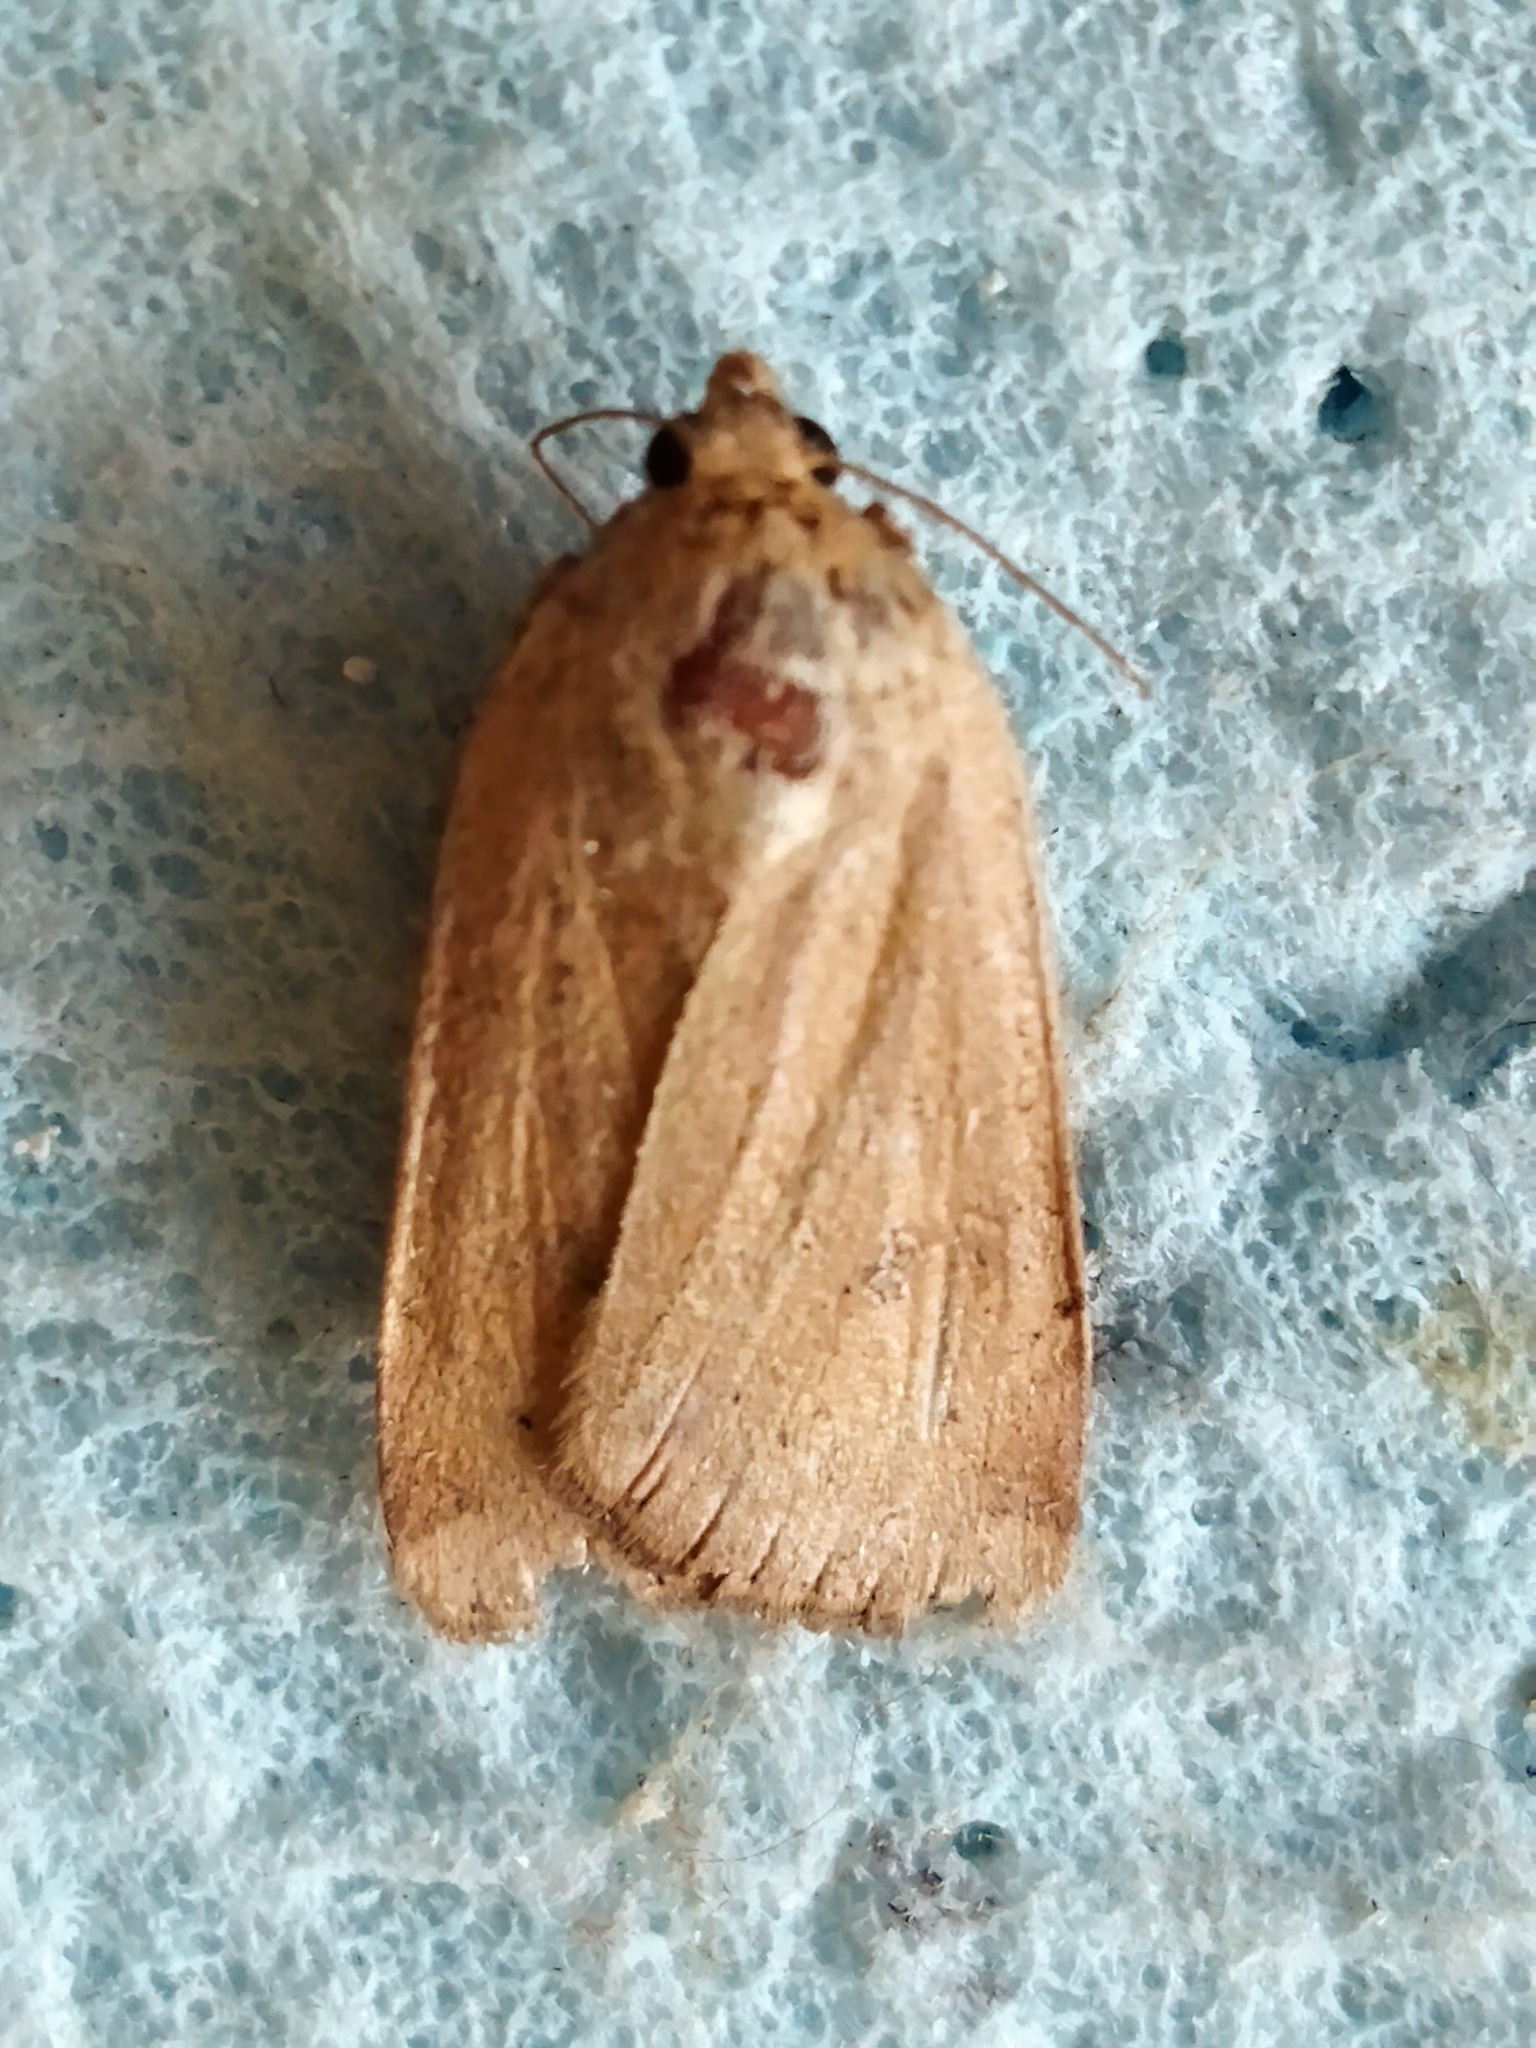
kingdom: Animalia
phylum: Arthropoda
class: Insecta
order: Lepidoptera
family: Noctuidae
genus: Noctua
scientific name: Noctua comes
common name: Lesser yellow underwing
